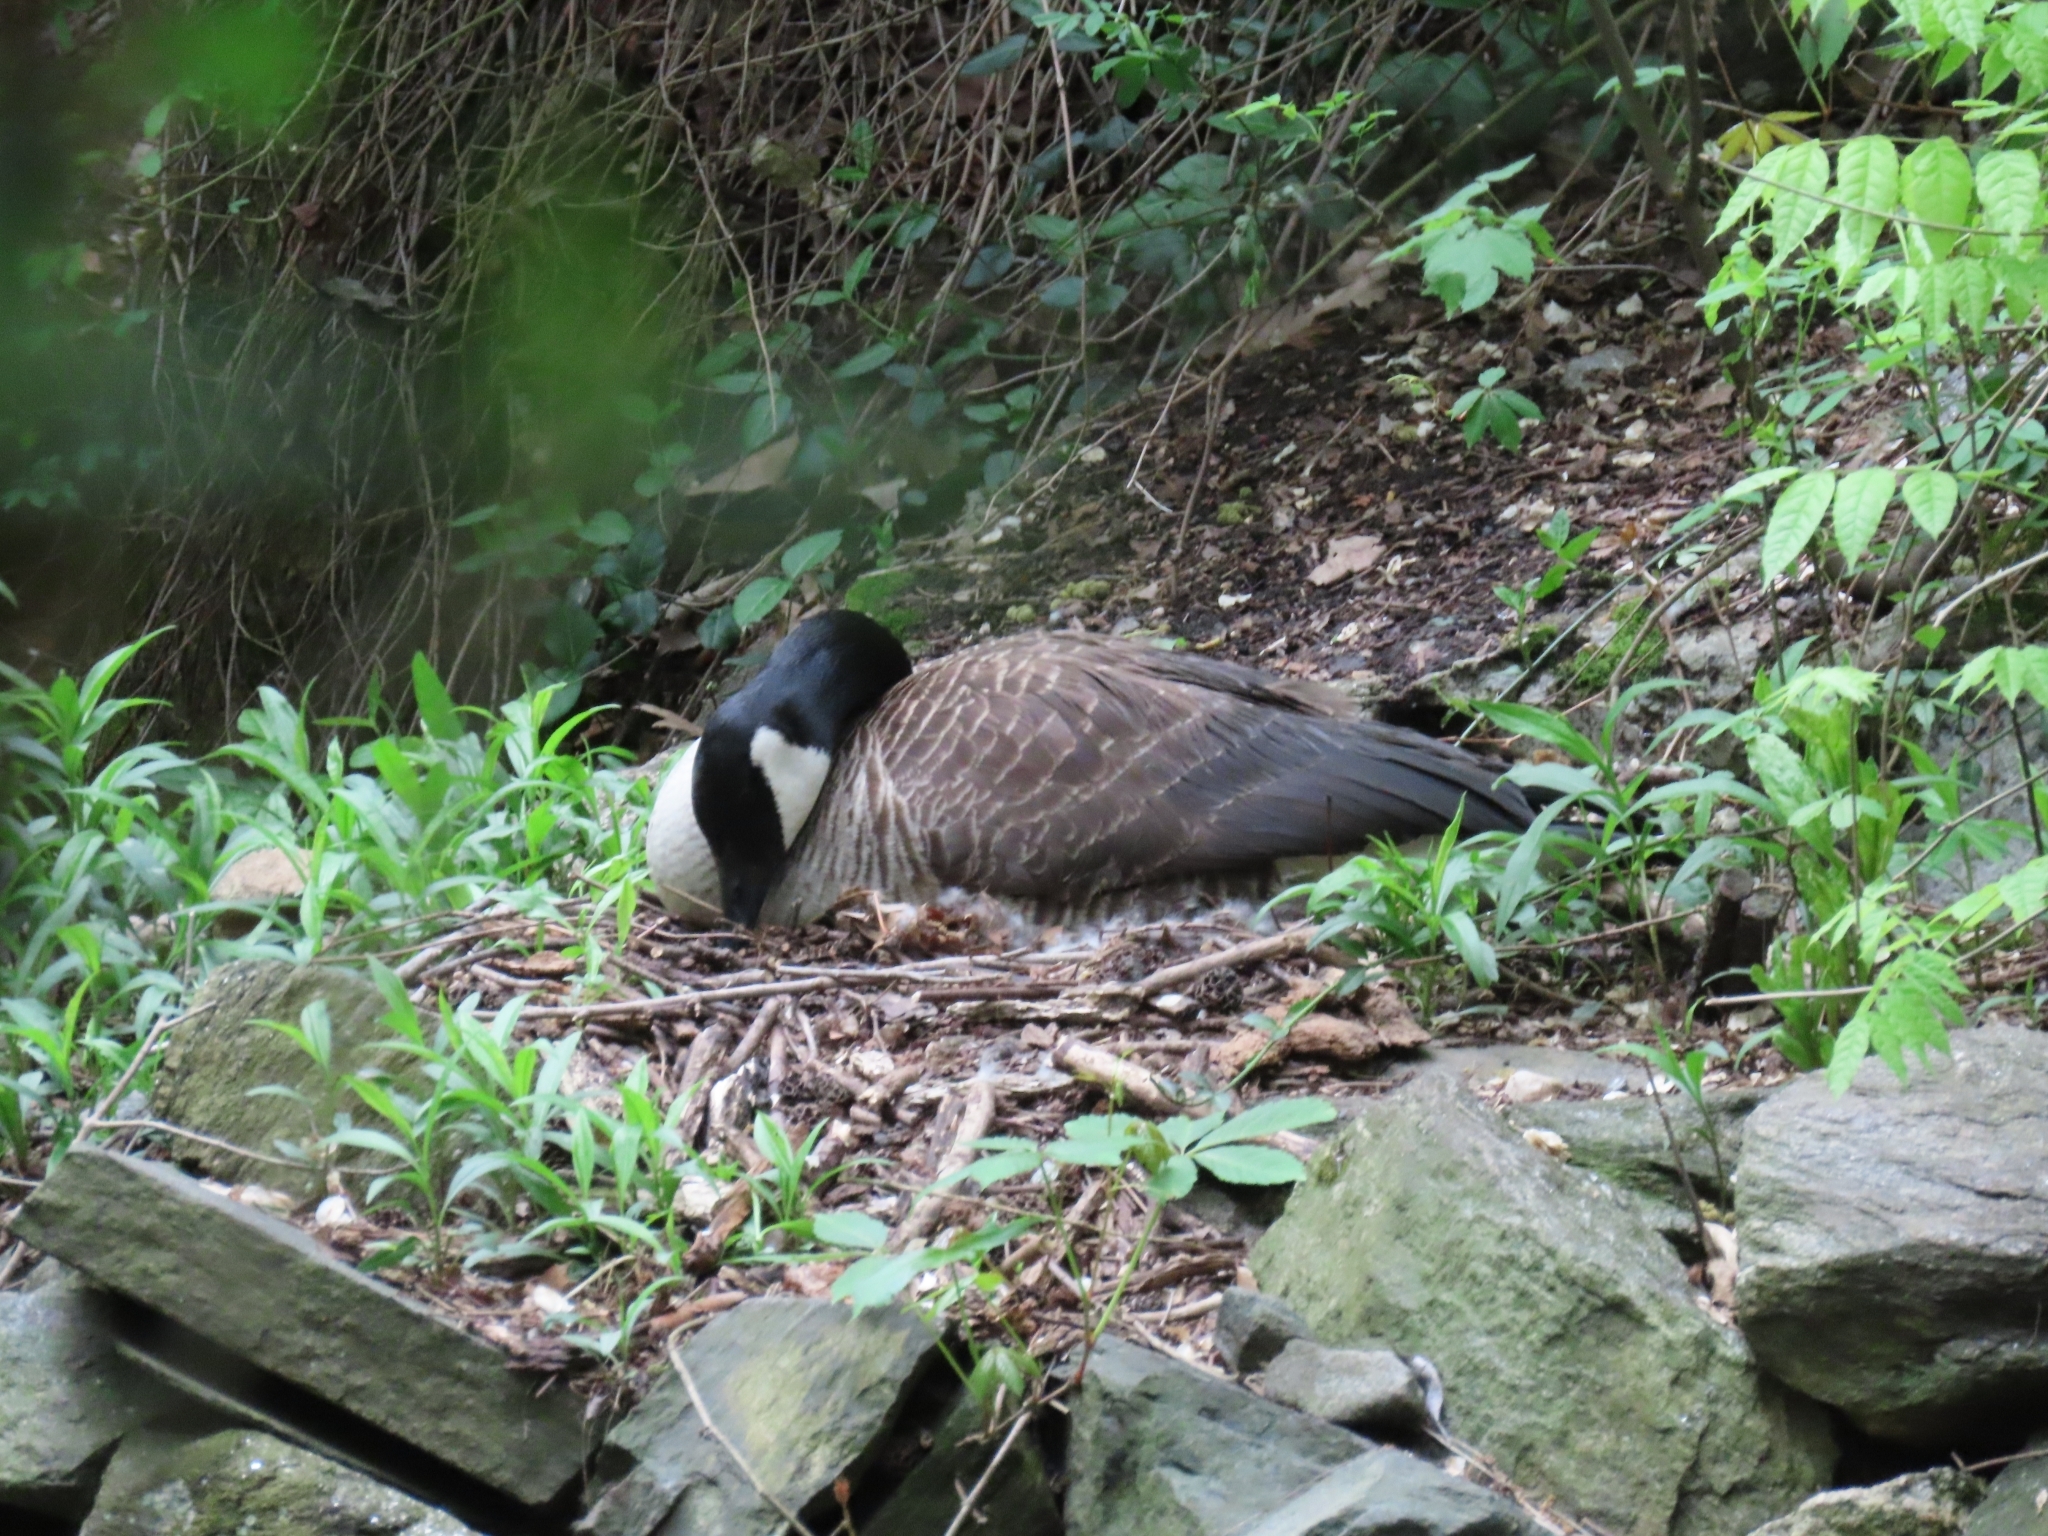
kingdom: Animalia
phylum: Chordata
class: Aves
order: Anseriformes
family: Anatidae
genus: Branta
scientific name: Branta canadensis
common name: Canada goose
